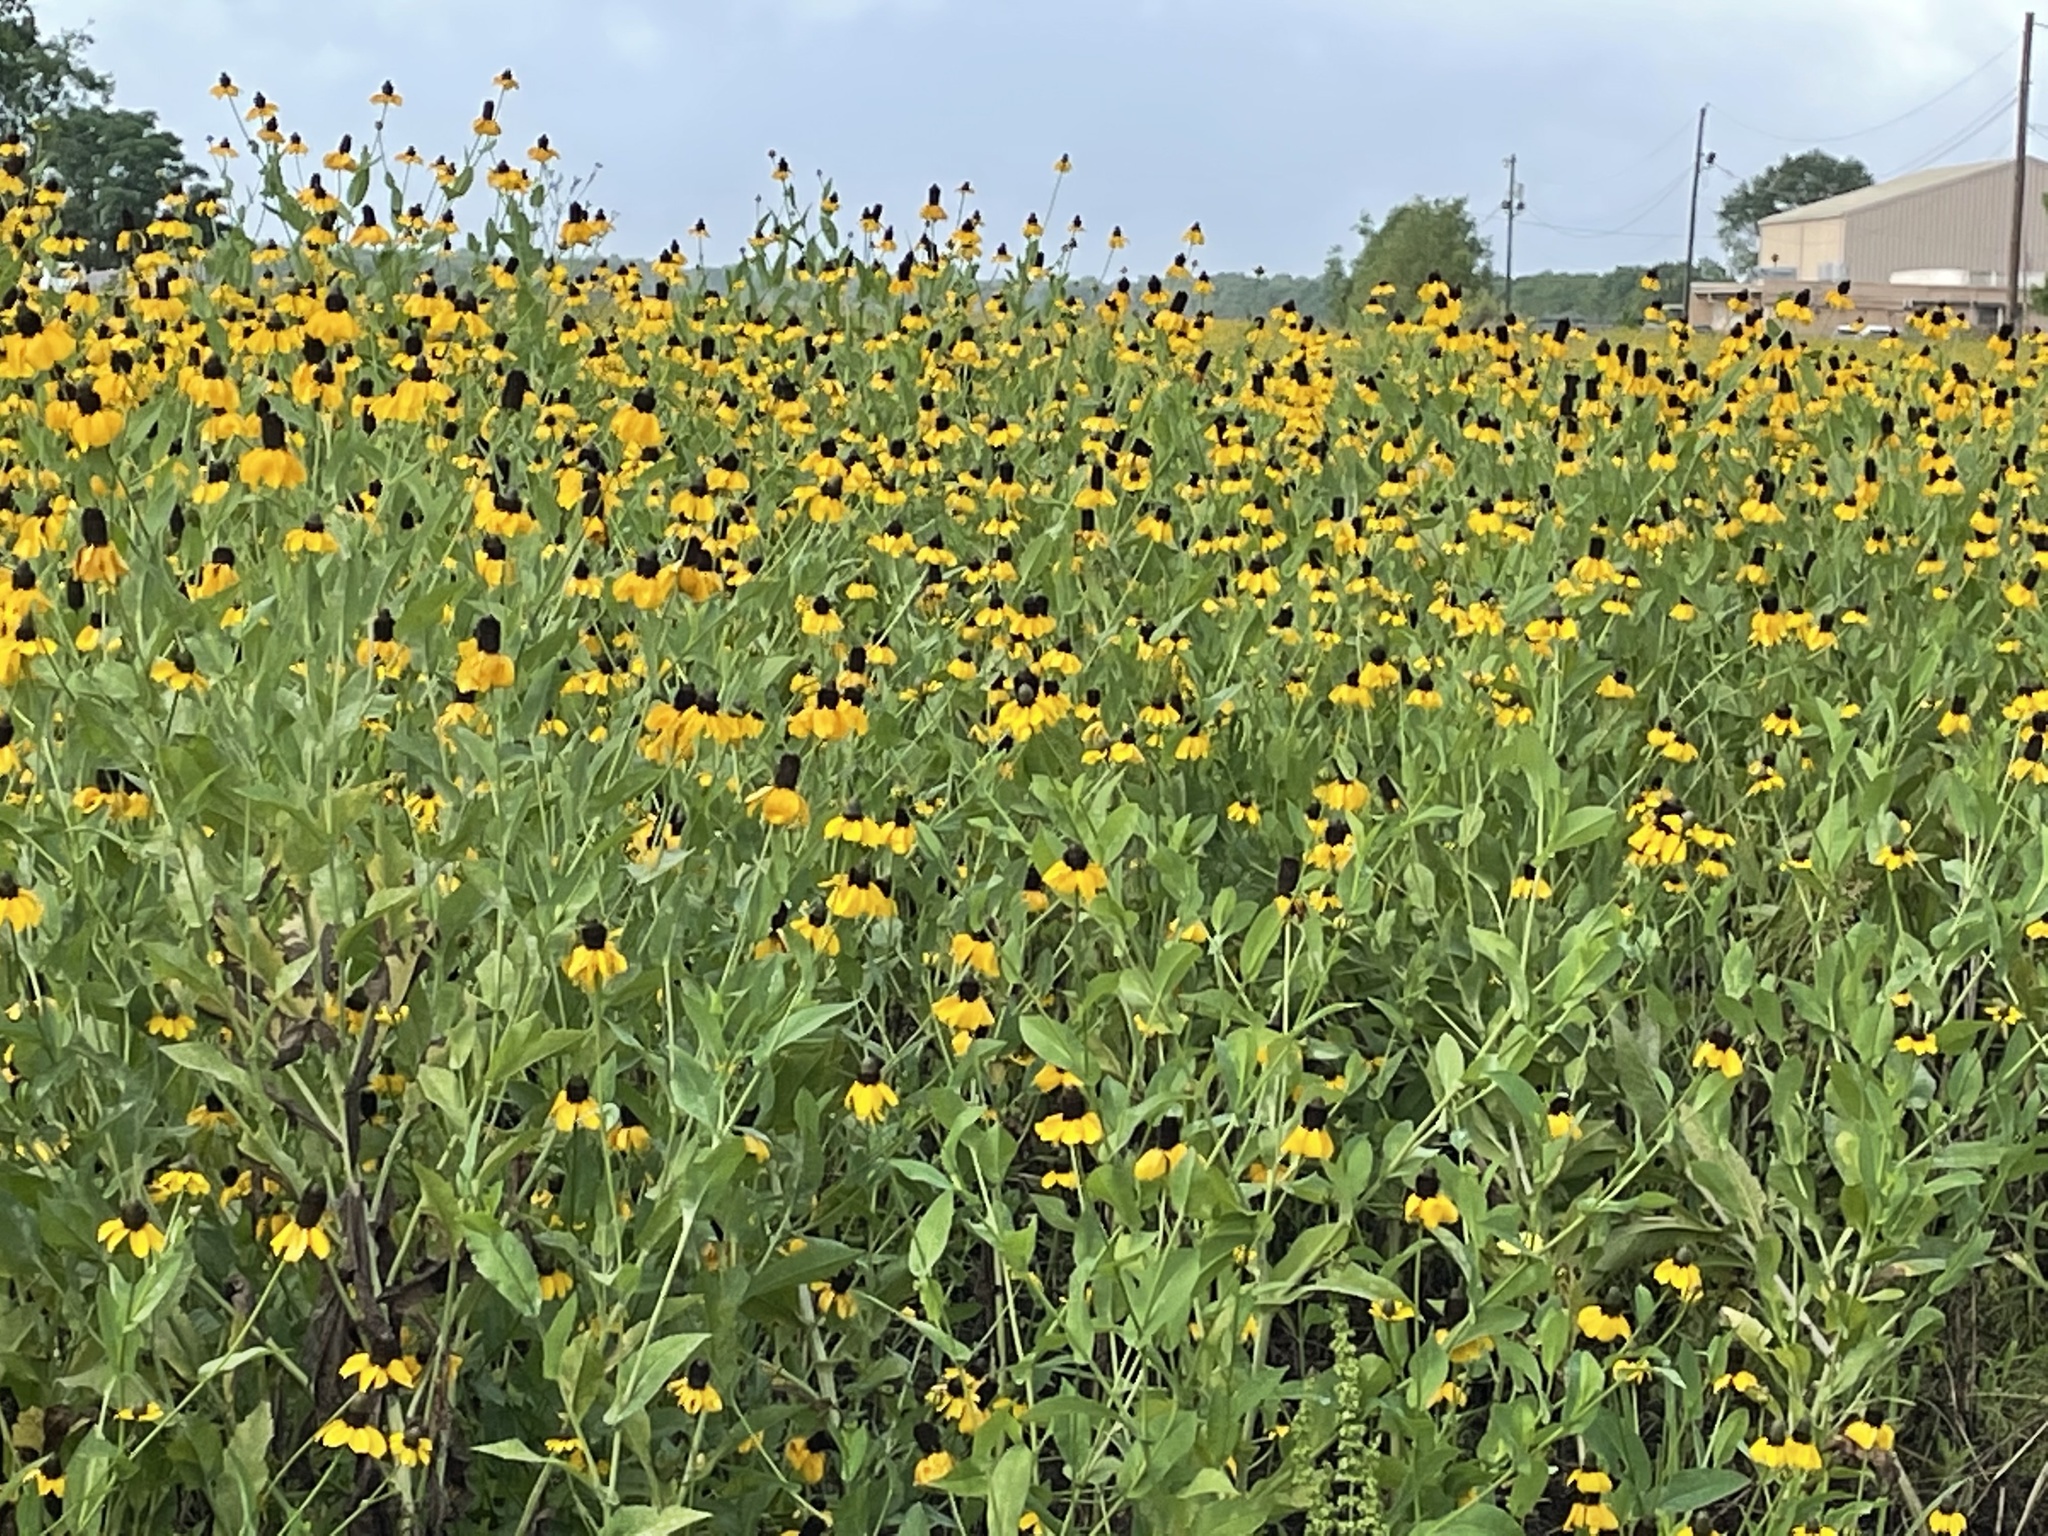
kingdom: Plantae
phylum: Tracheophyta
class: Magnoliopsida
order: Asterales
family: Asteraceae
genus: Rudbeckia
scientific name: Rudbeckia amplexicaulis
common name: Clasping-leaf coneflower
